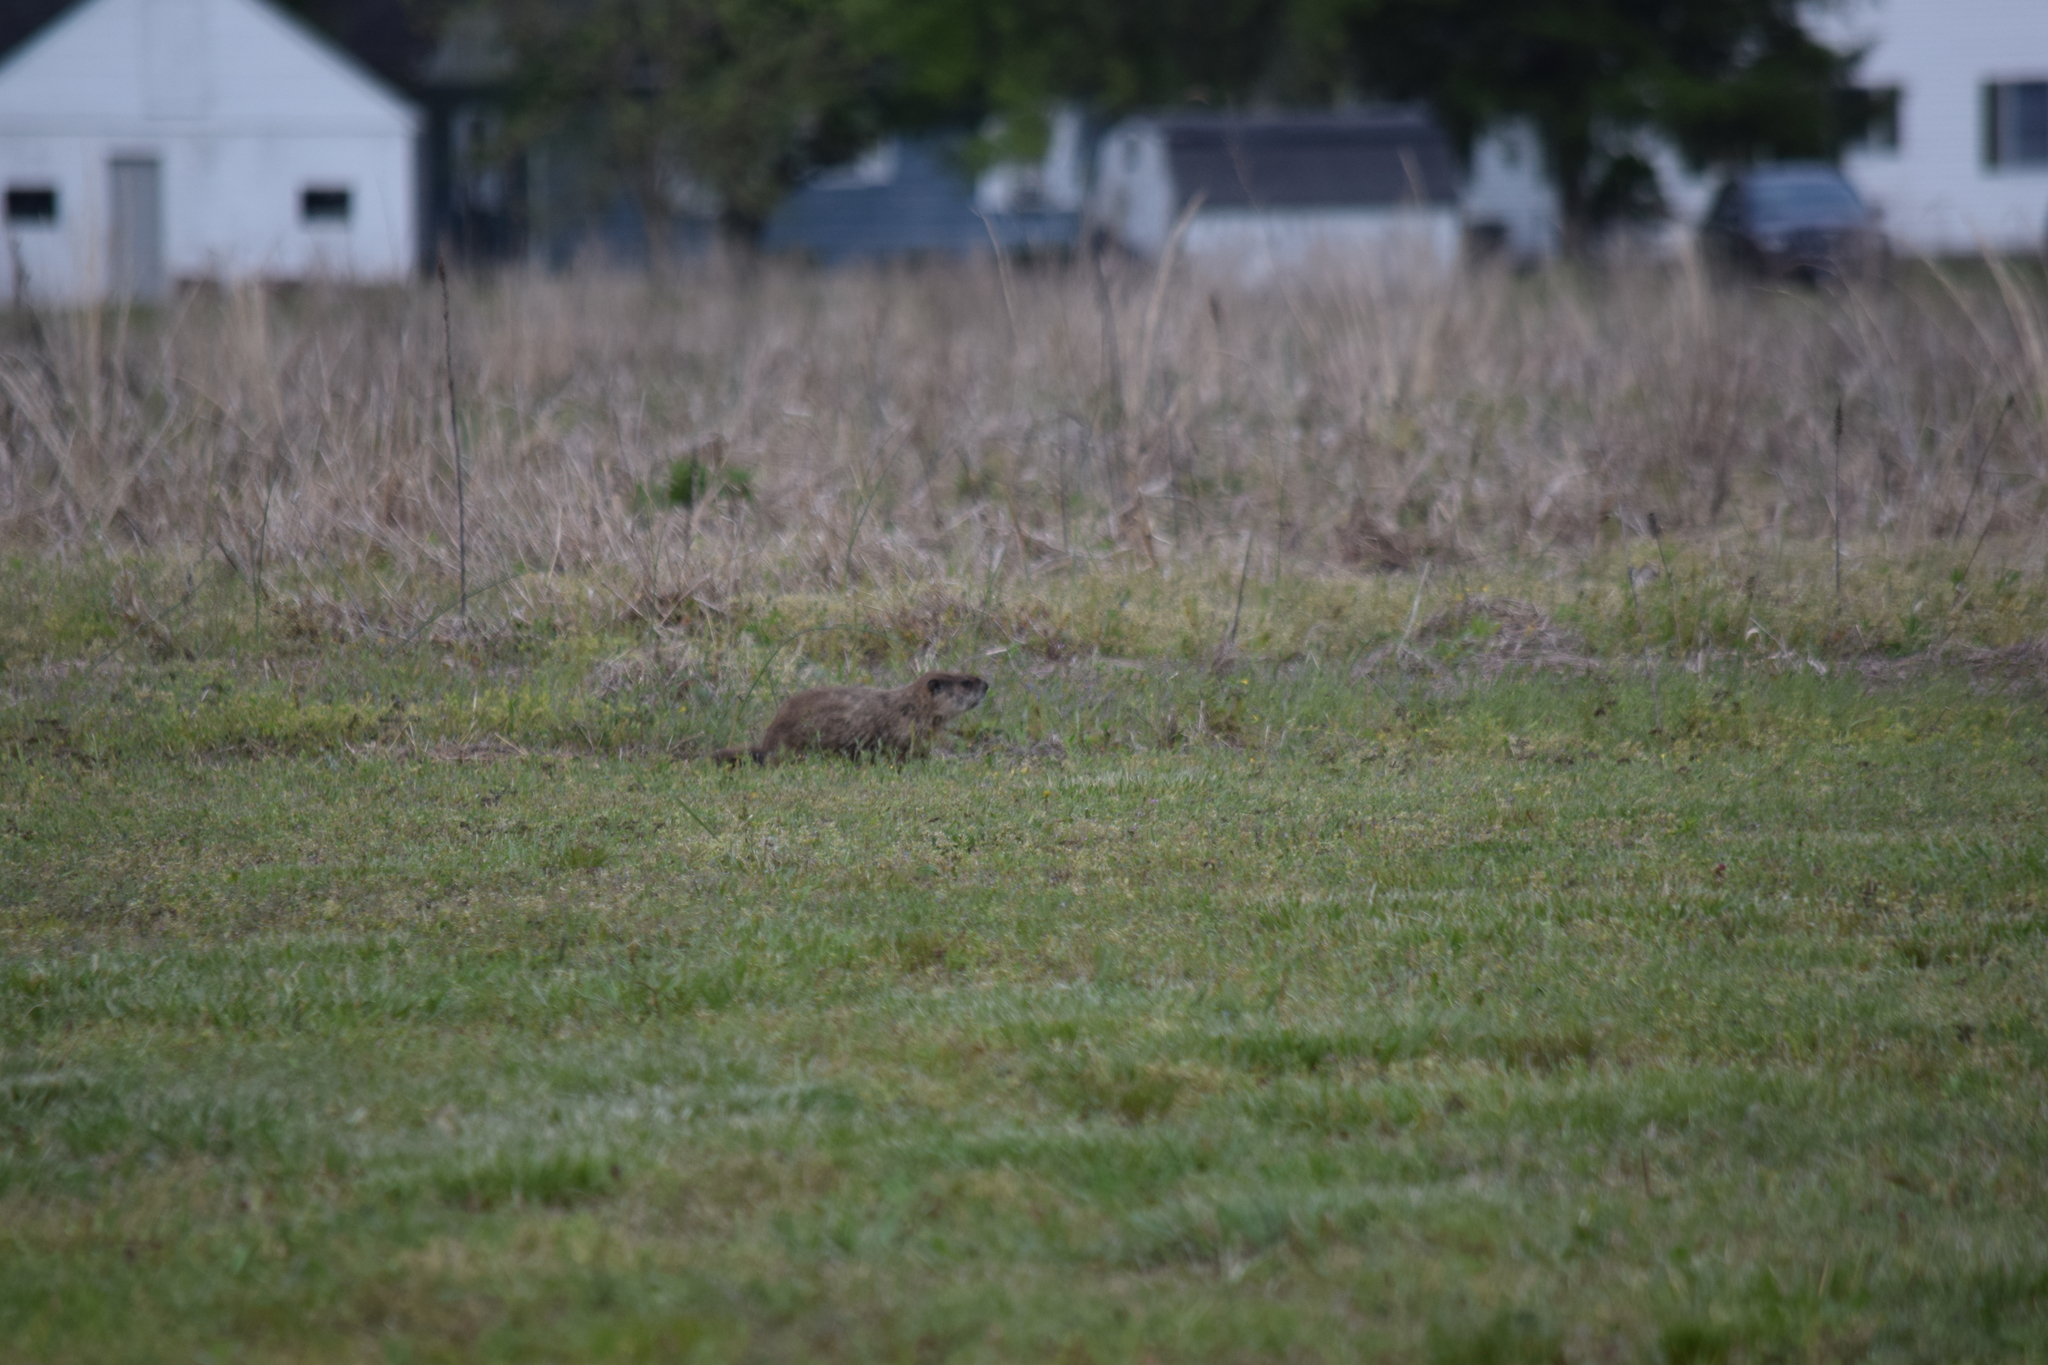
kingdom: Animalia
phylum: Chordata
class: Mammalia
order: Rodentia
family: Sciuridae
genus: Marmota
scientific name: Marmota monax
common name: Groundhog
